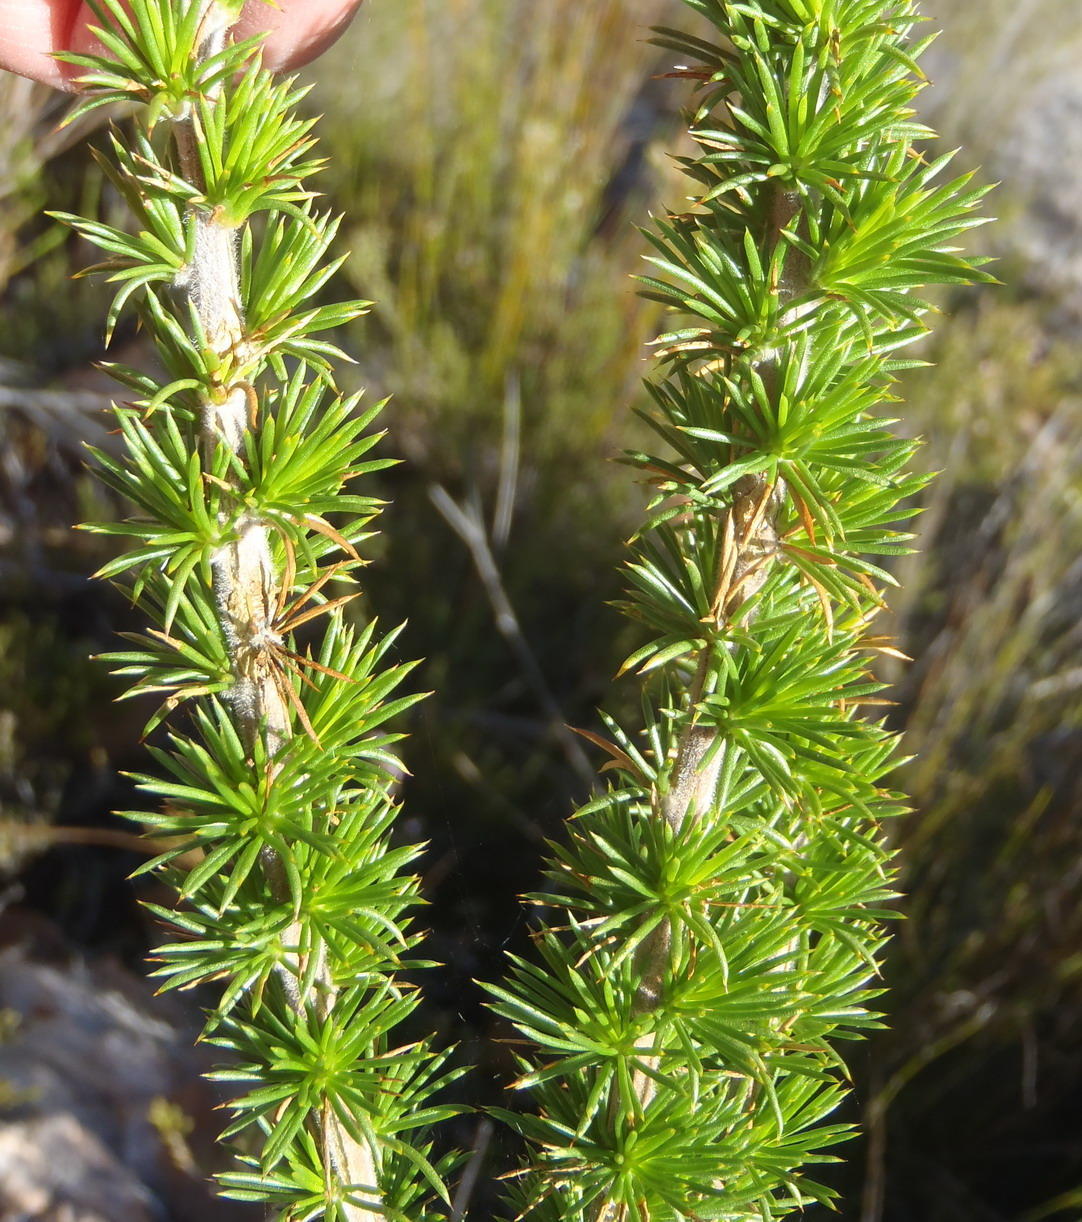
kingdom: Plantae
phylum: Tracheophyta
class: Magnoliopsida
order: Fabales
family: Fabaceae
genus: Aspalathus
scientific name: Aspalathus sceptrumaureum
